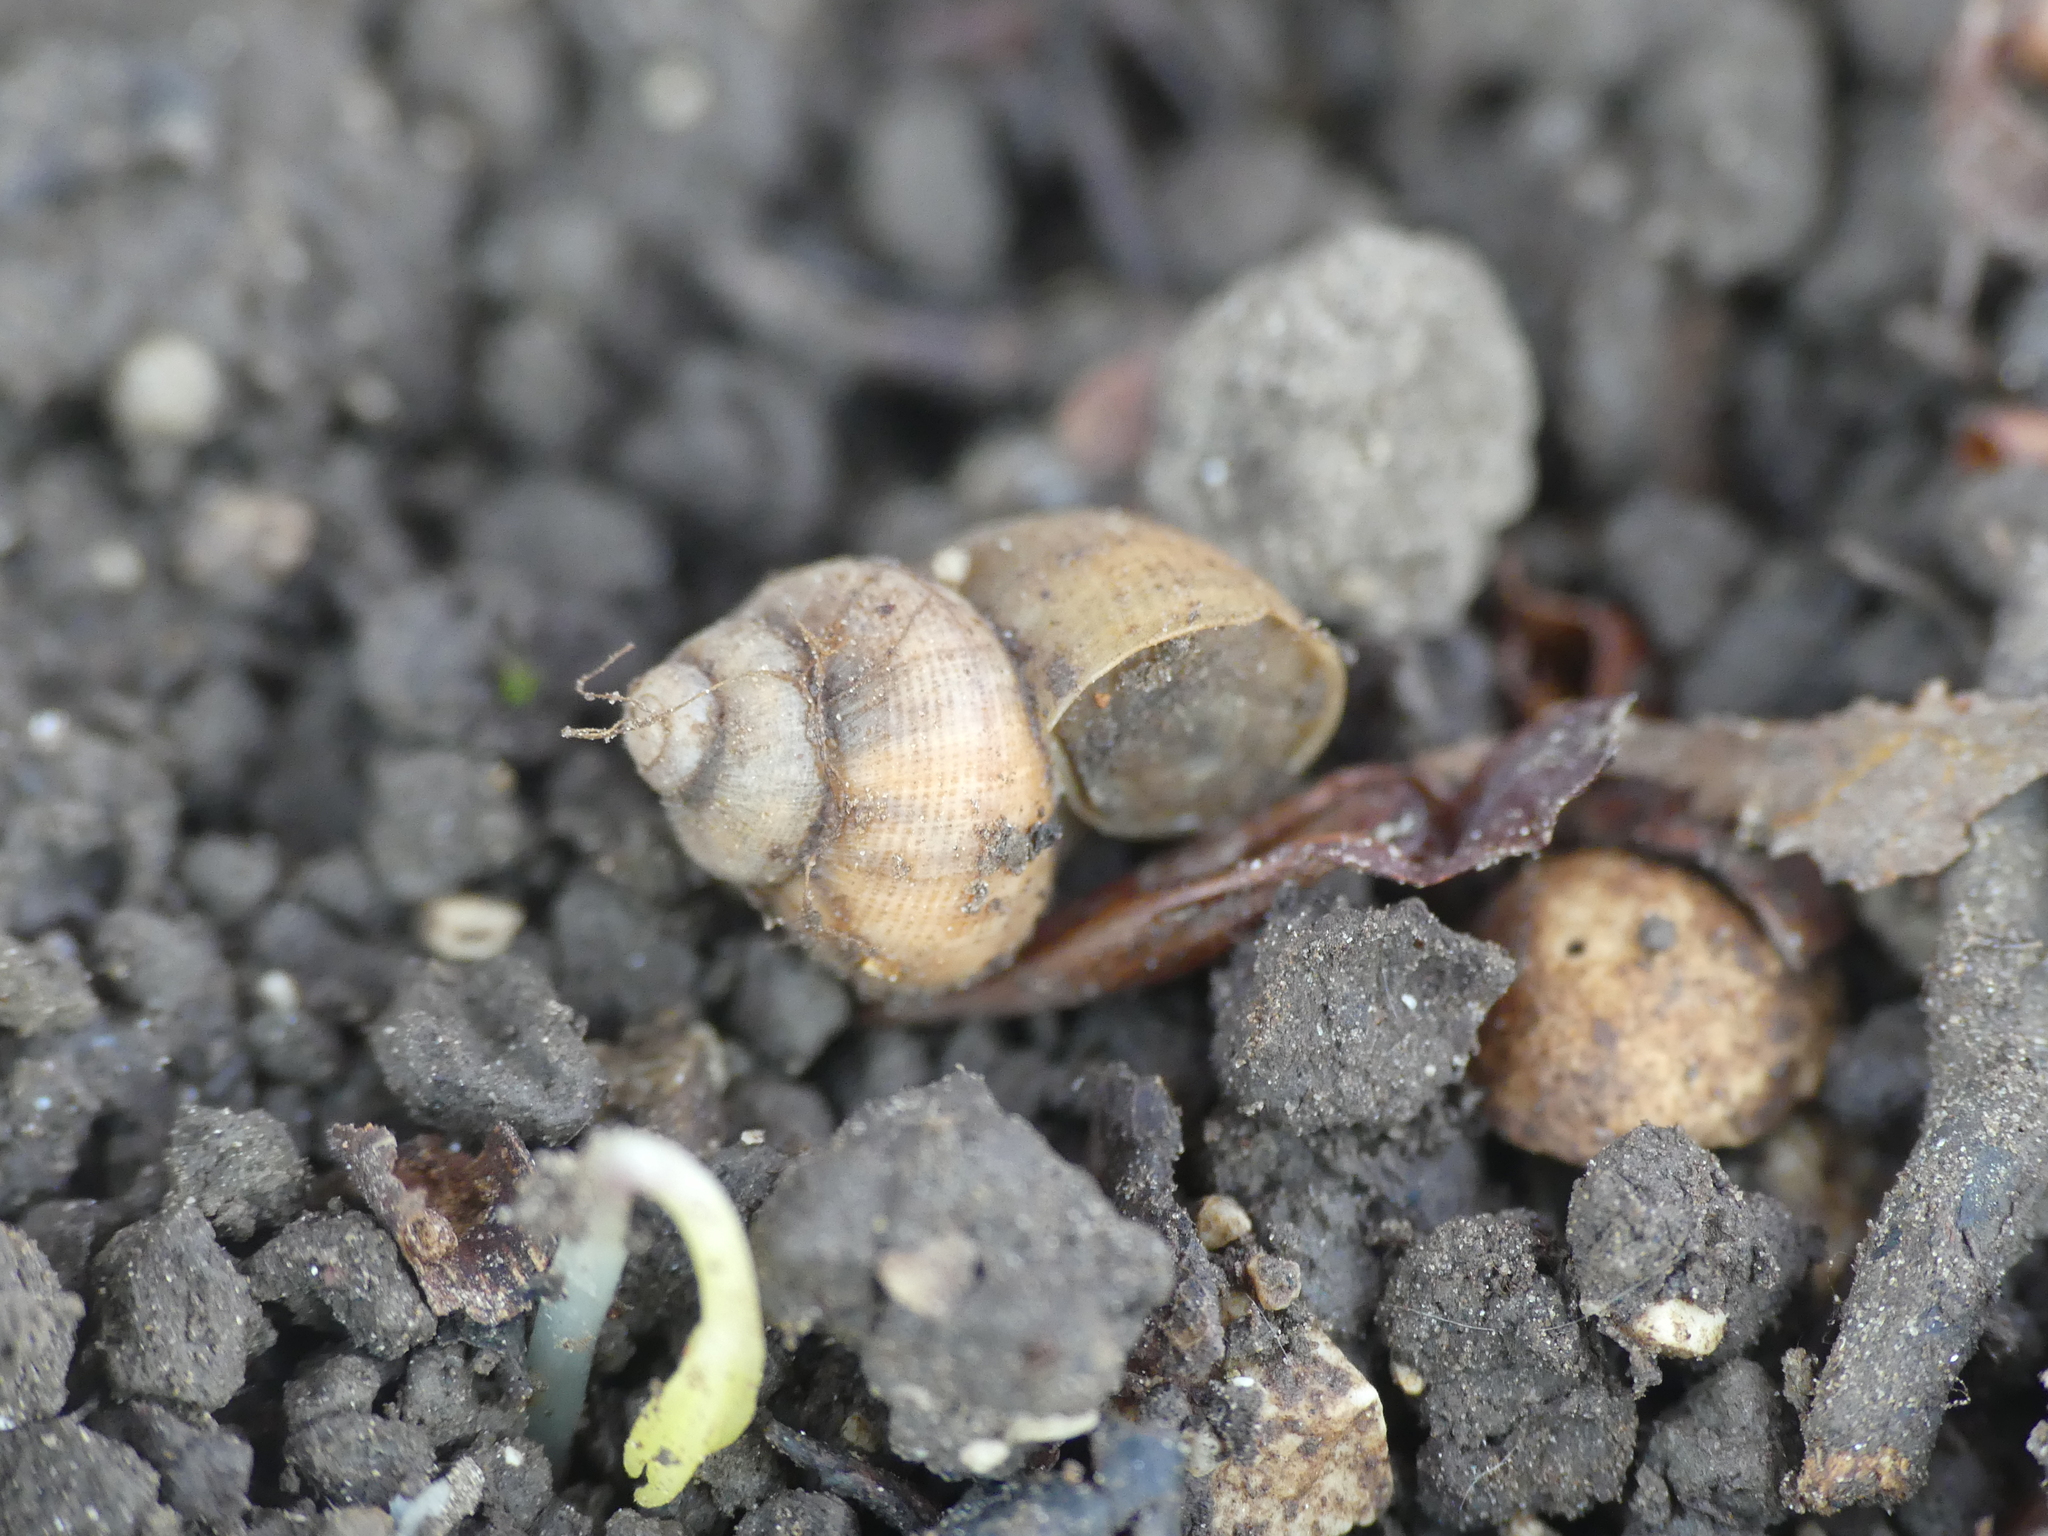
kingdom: Animalia
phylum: Mollusca
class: Gastropoda
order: Littorinimorpha
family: Pomatiidae
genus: Pomatias
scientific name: Pomatias elegans
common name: Red-mouthed snail
